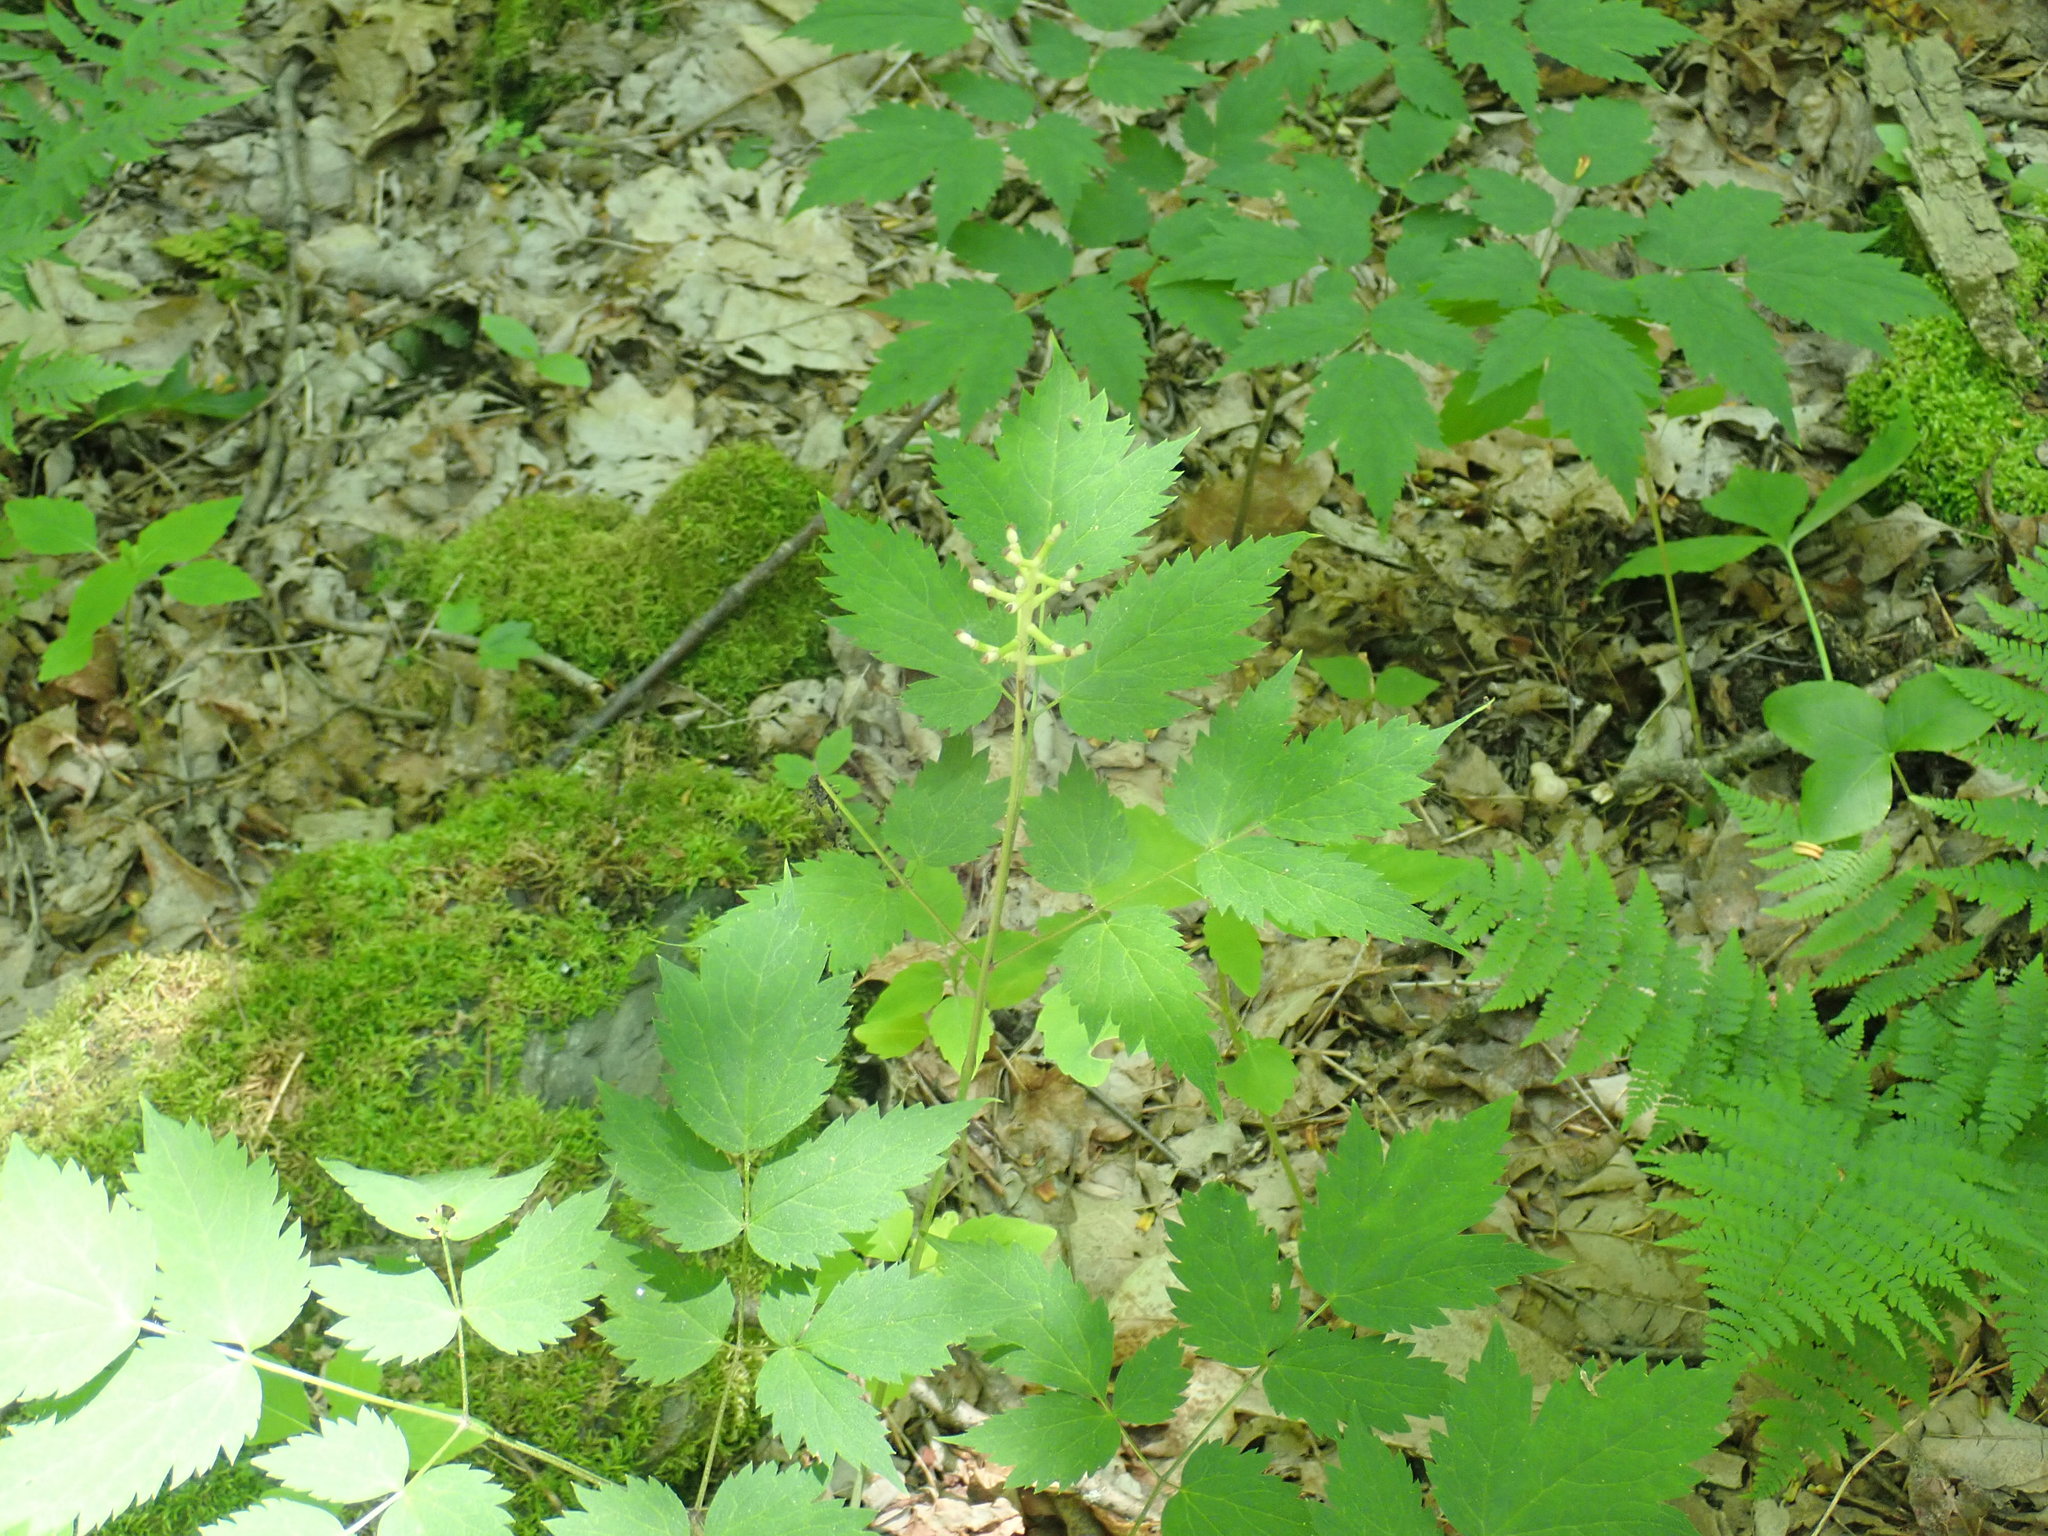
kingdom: Plantae
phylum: Tracheophyta
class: Magnoliopsida
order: Ranunculales
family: Ranunculaceae
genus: Actaea
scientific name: Actaea pachypoda
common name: Doll's-eyes
